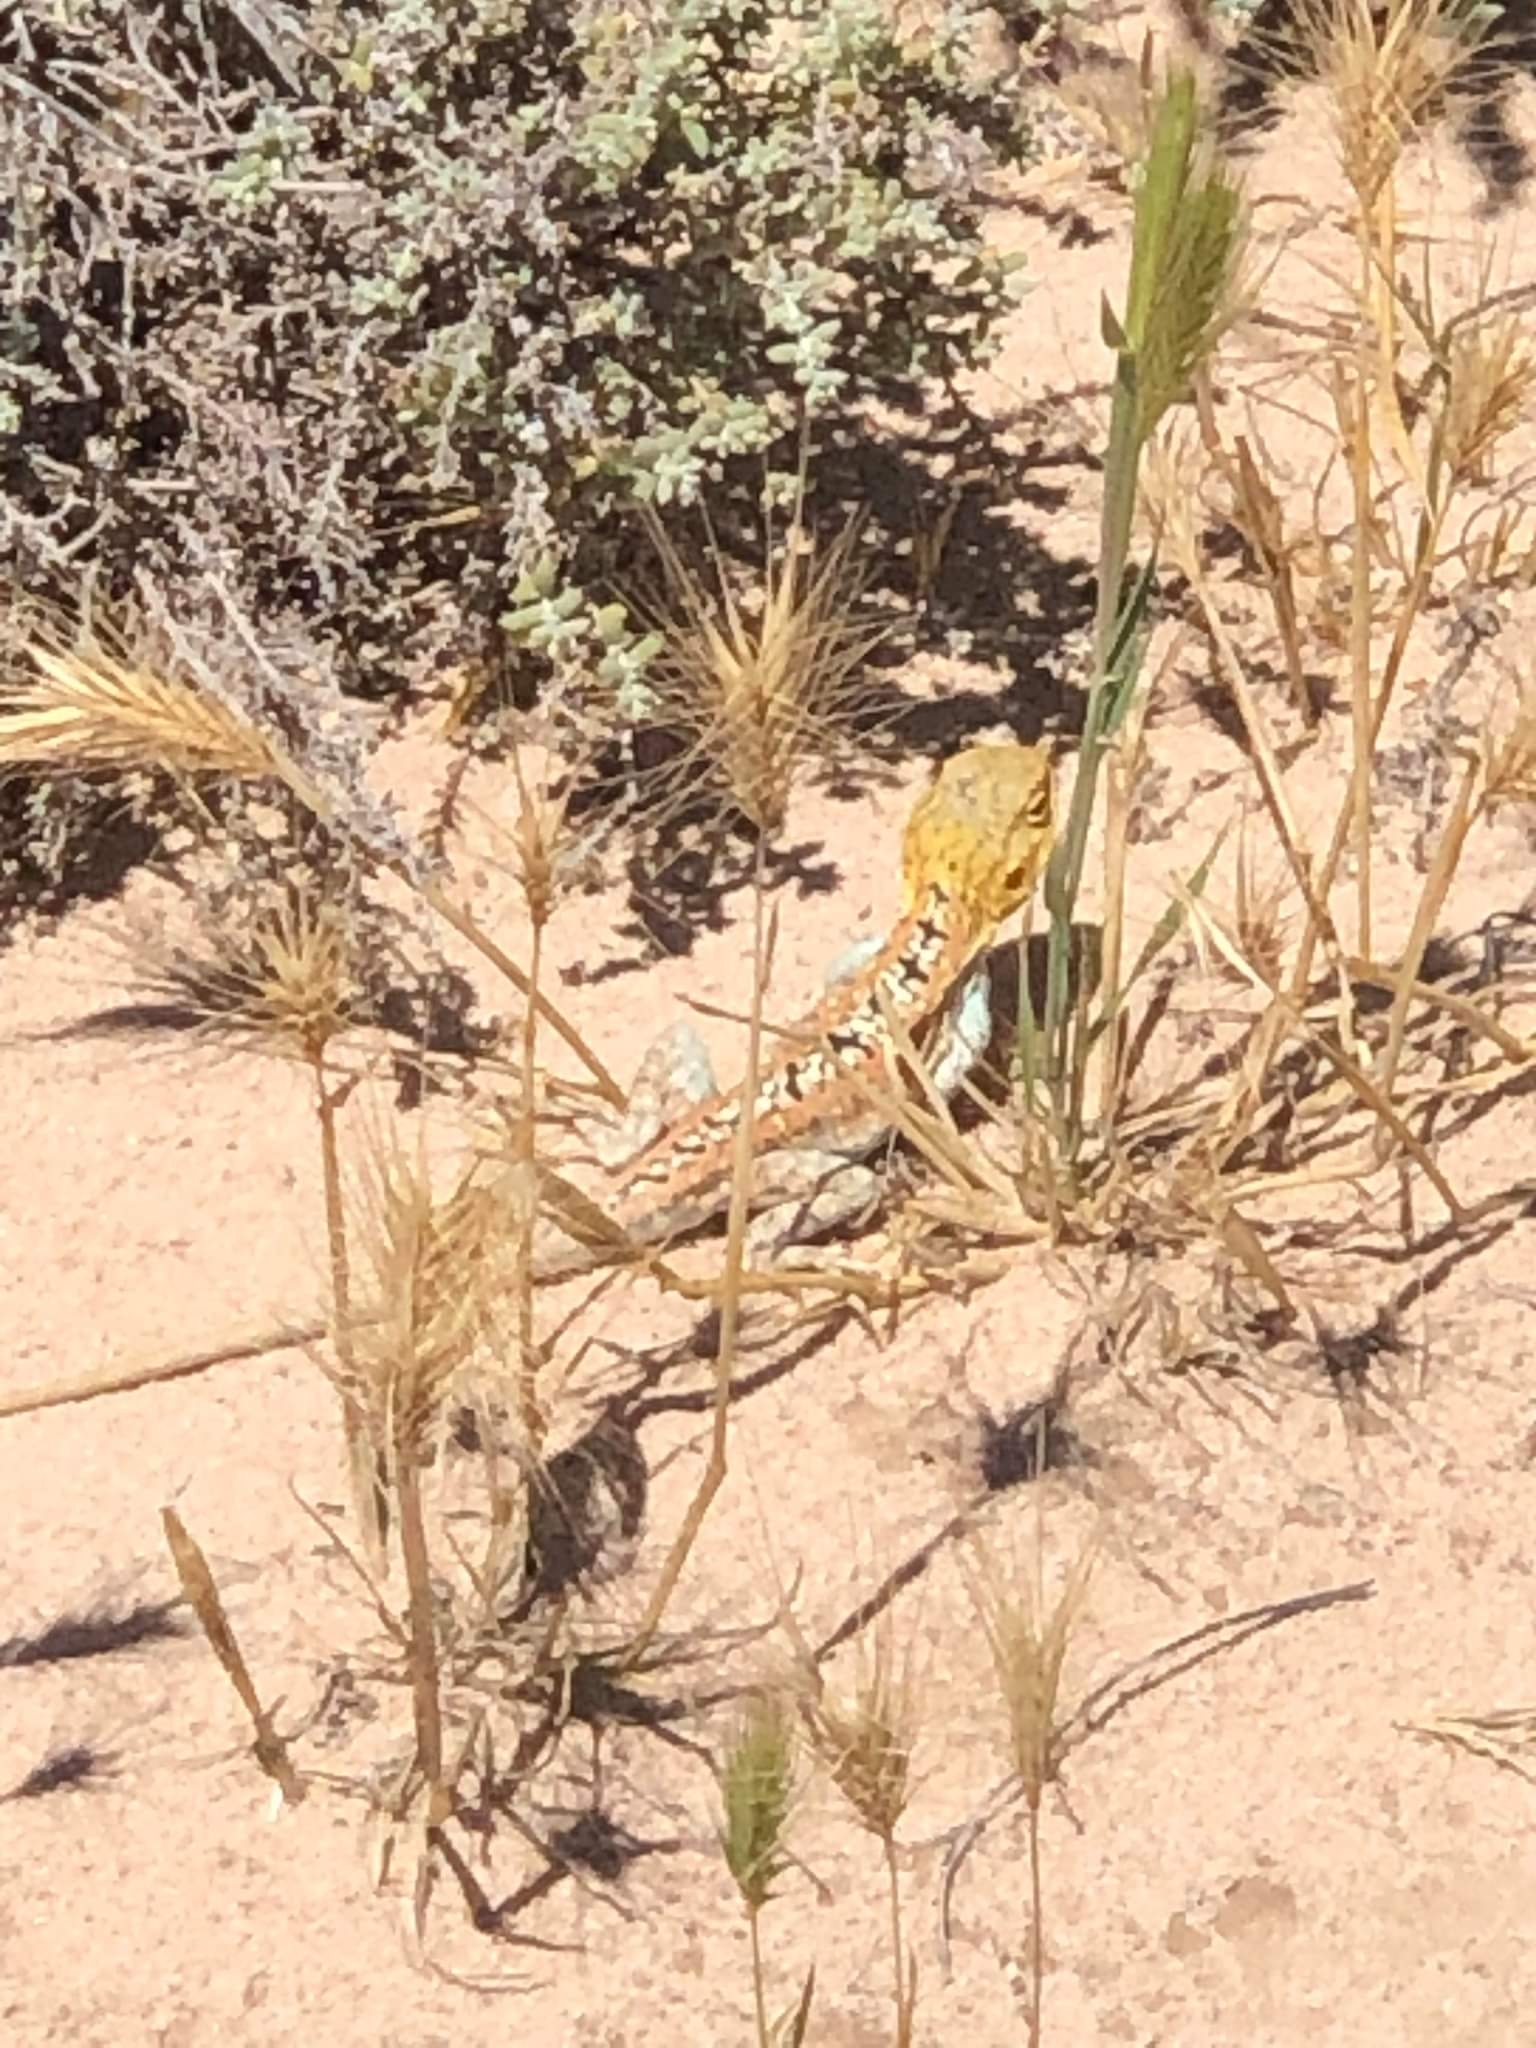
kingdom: Animalia
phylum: Chordata
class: Squamata
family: Agamidae
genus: Ctenophorus
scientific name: Ctenophorus pictus
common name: Painted dragon
